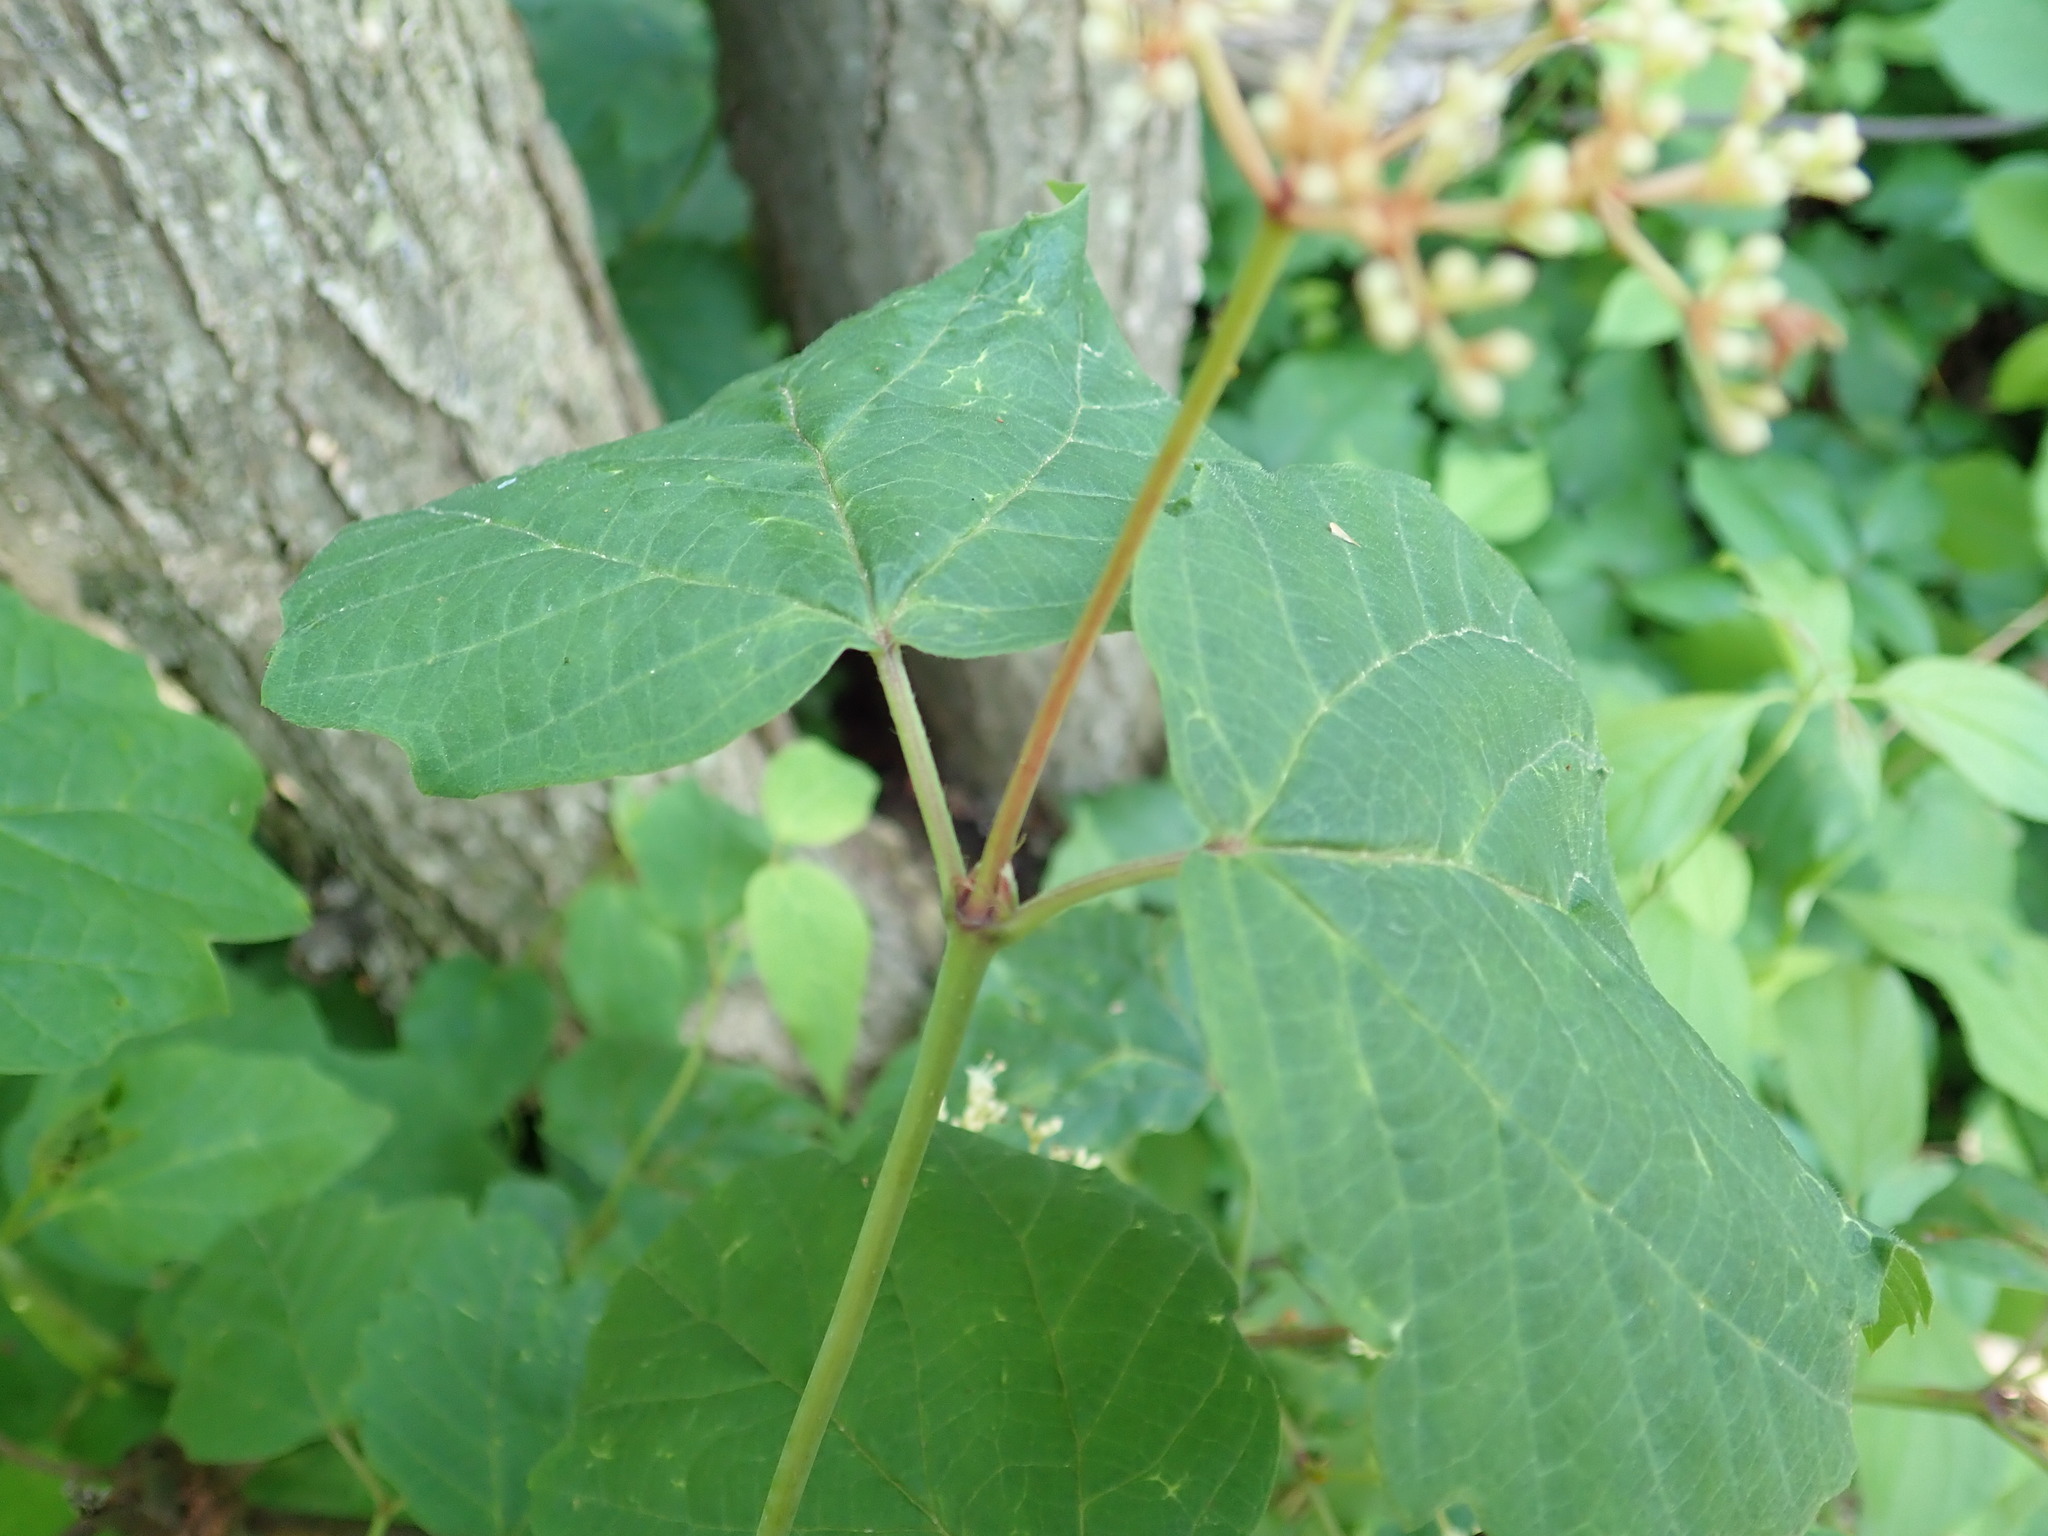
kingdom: Plantae
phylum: Tracheophyta
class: Magnoliopsida
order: Dipsacales
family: Viburnaceae
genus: Viburnum
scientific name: Viburnum acerifolium
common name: Dockmackie
